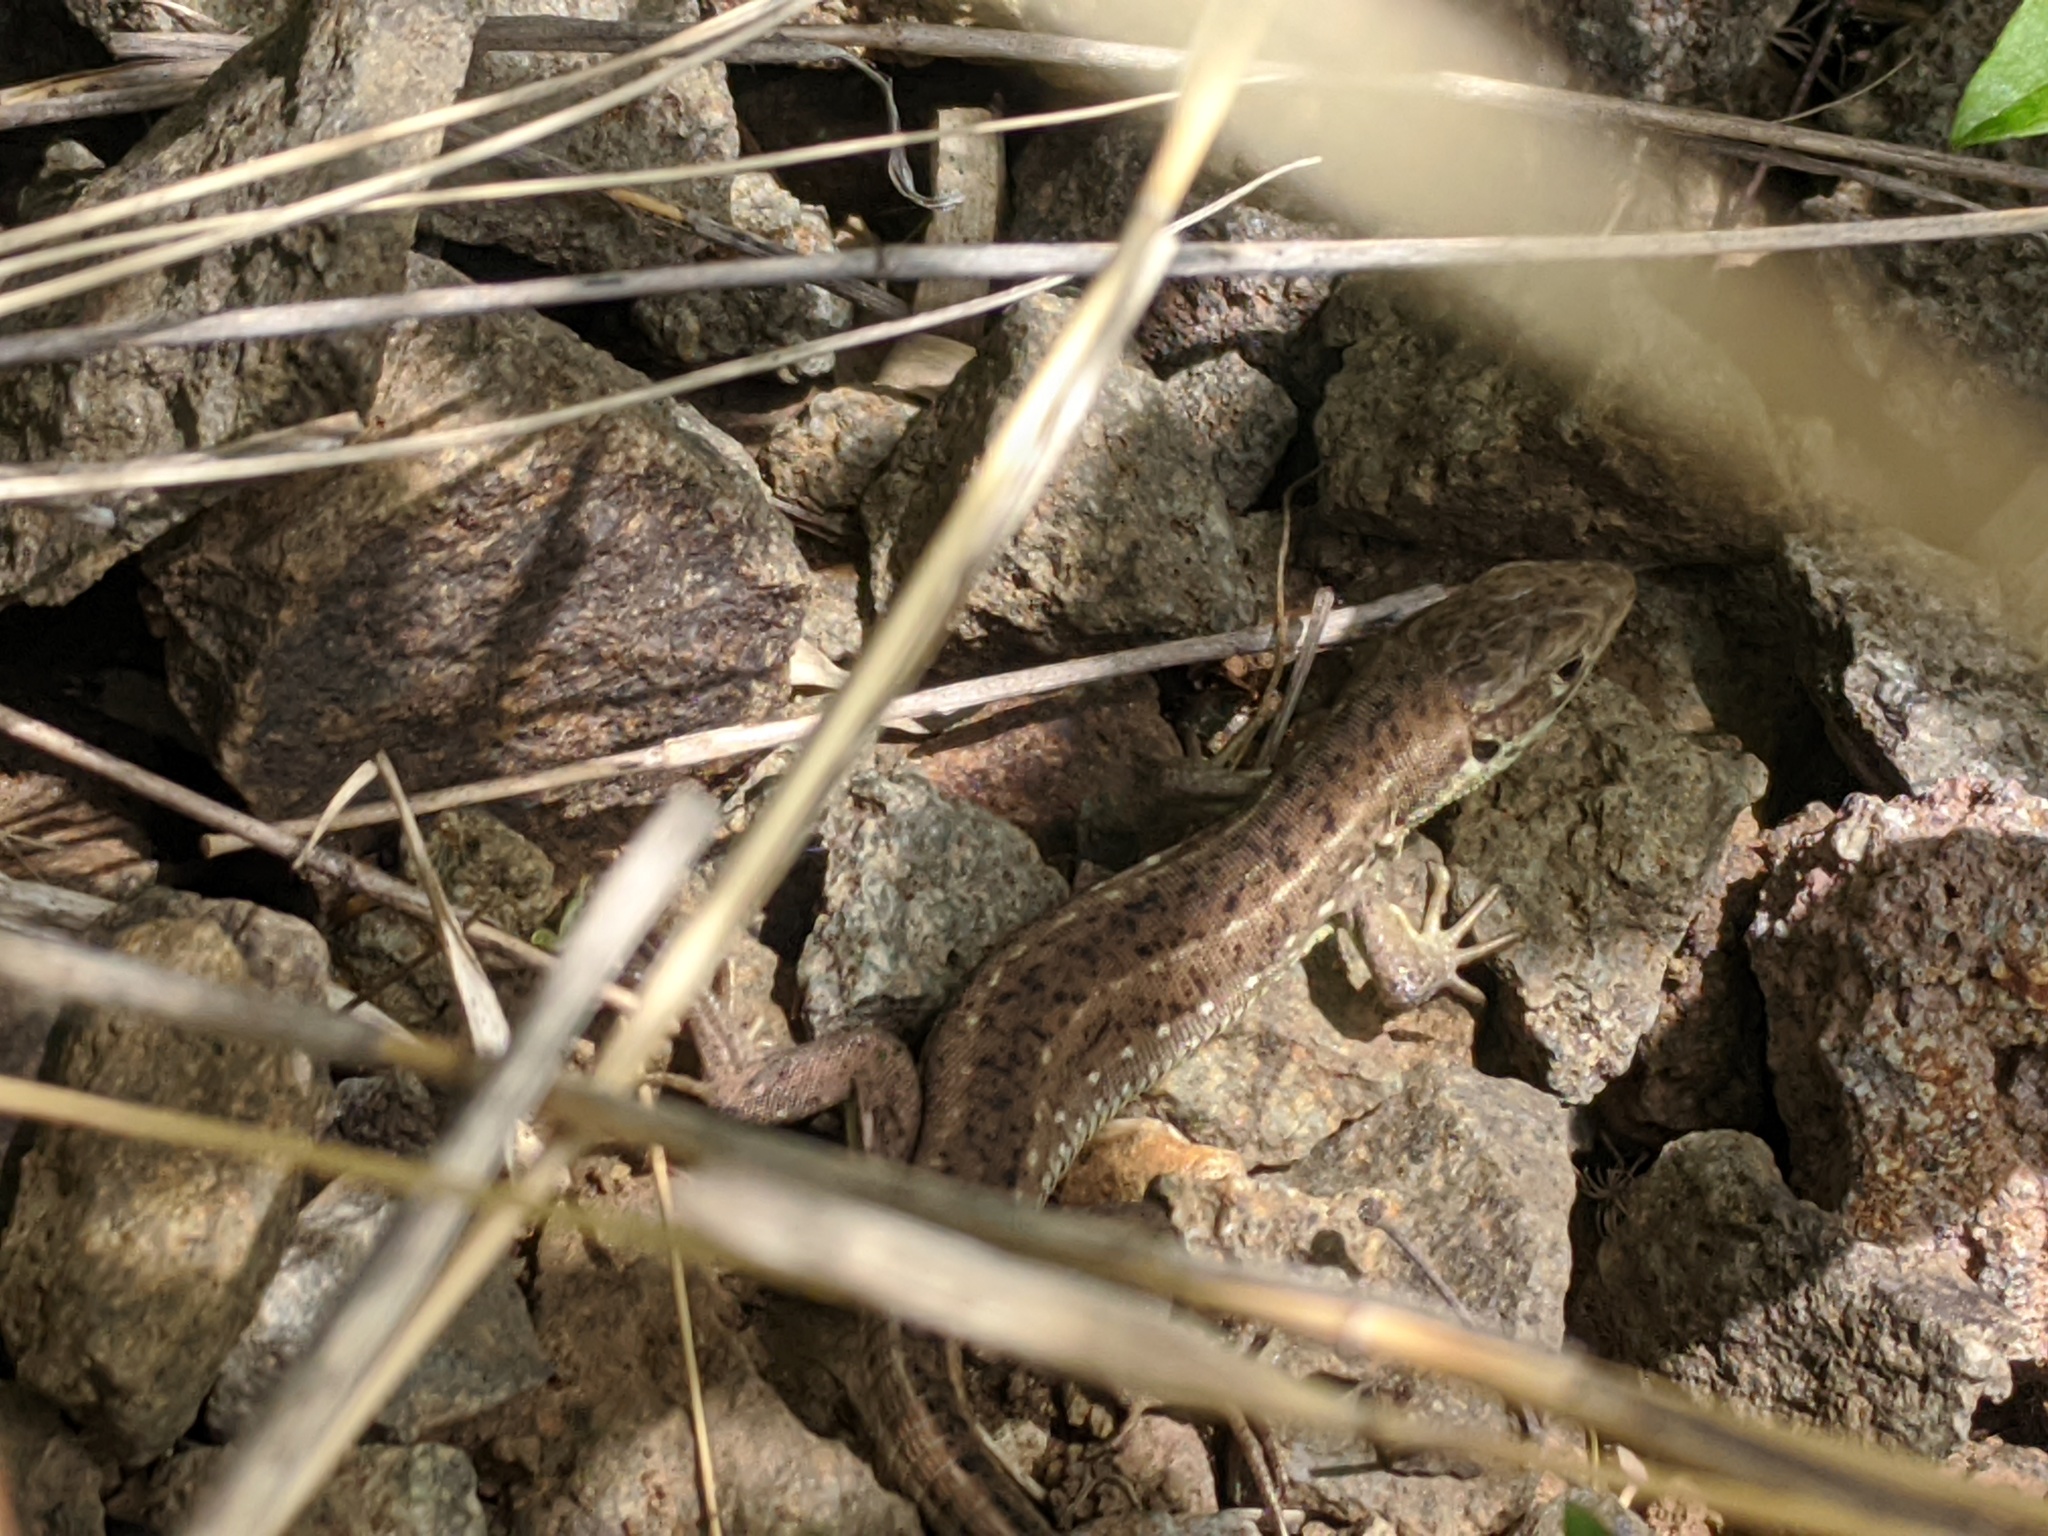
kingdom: Animalia
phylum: Chordata
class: Squamata
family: Lacertidae
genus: Lacerta
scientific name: Lacerta viridis
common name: European green lizard
